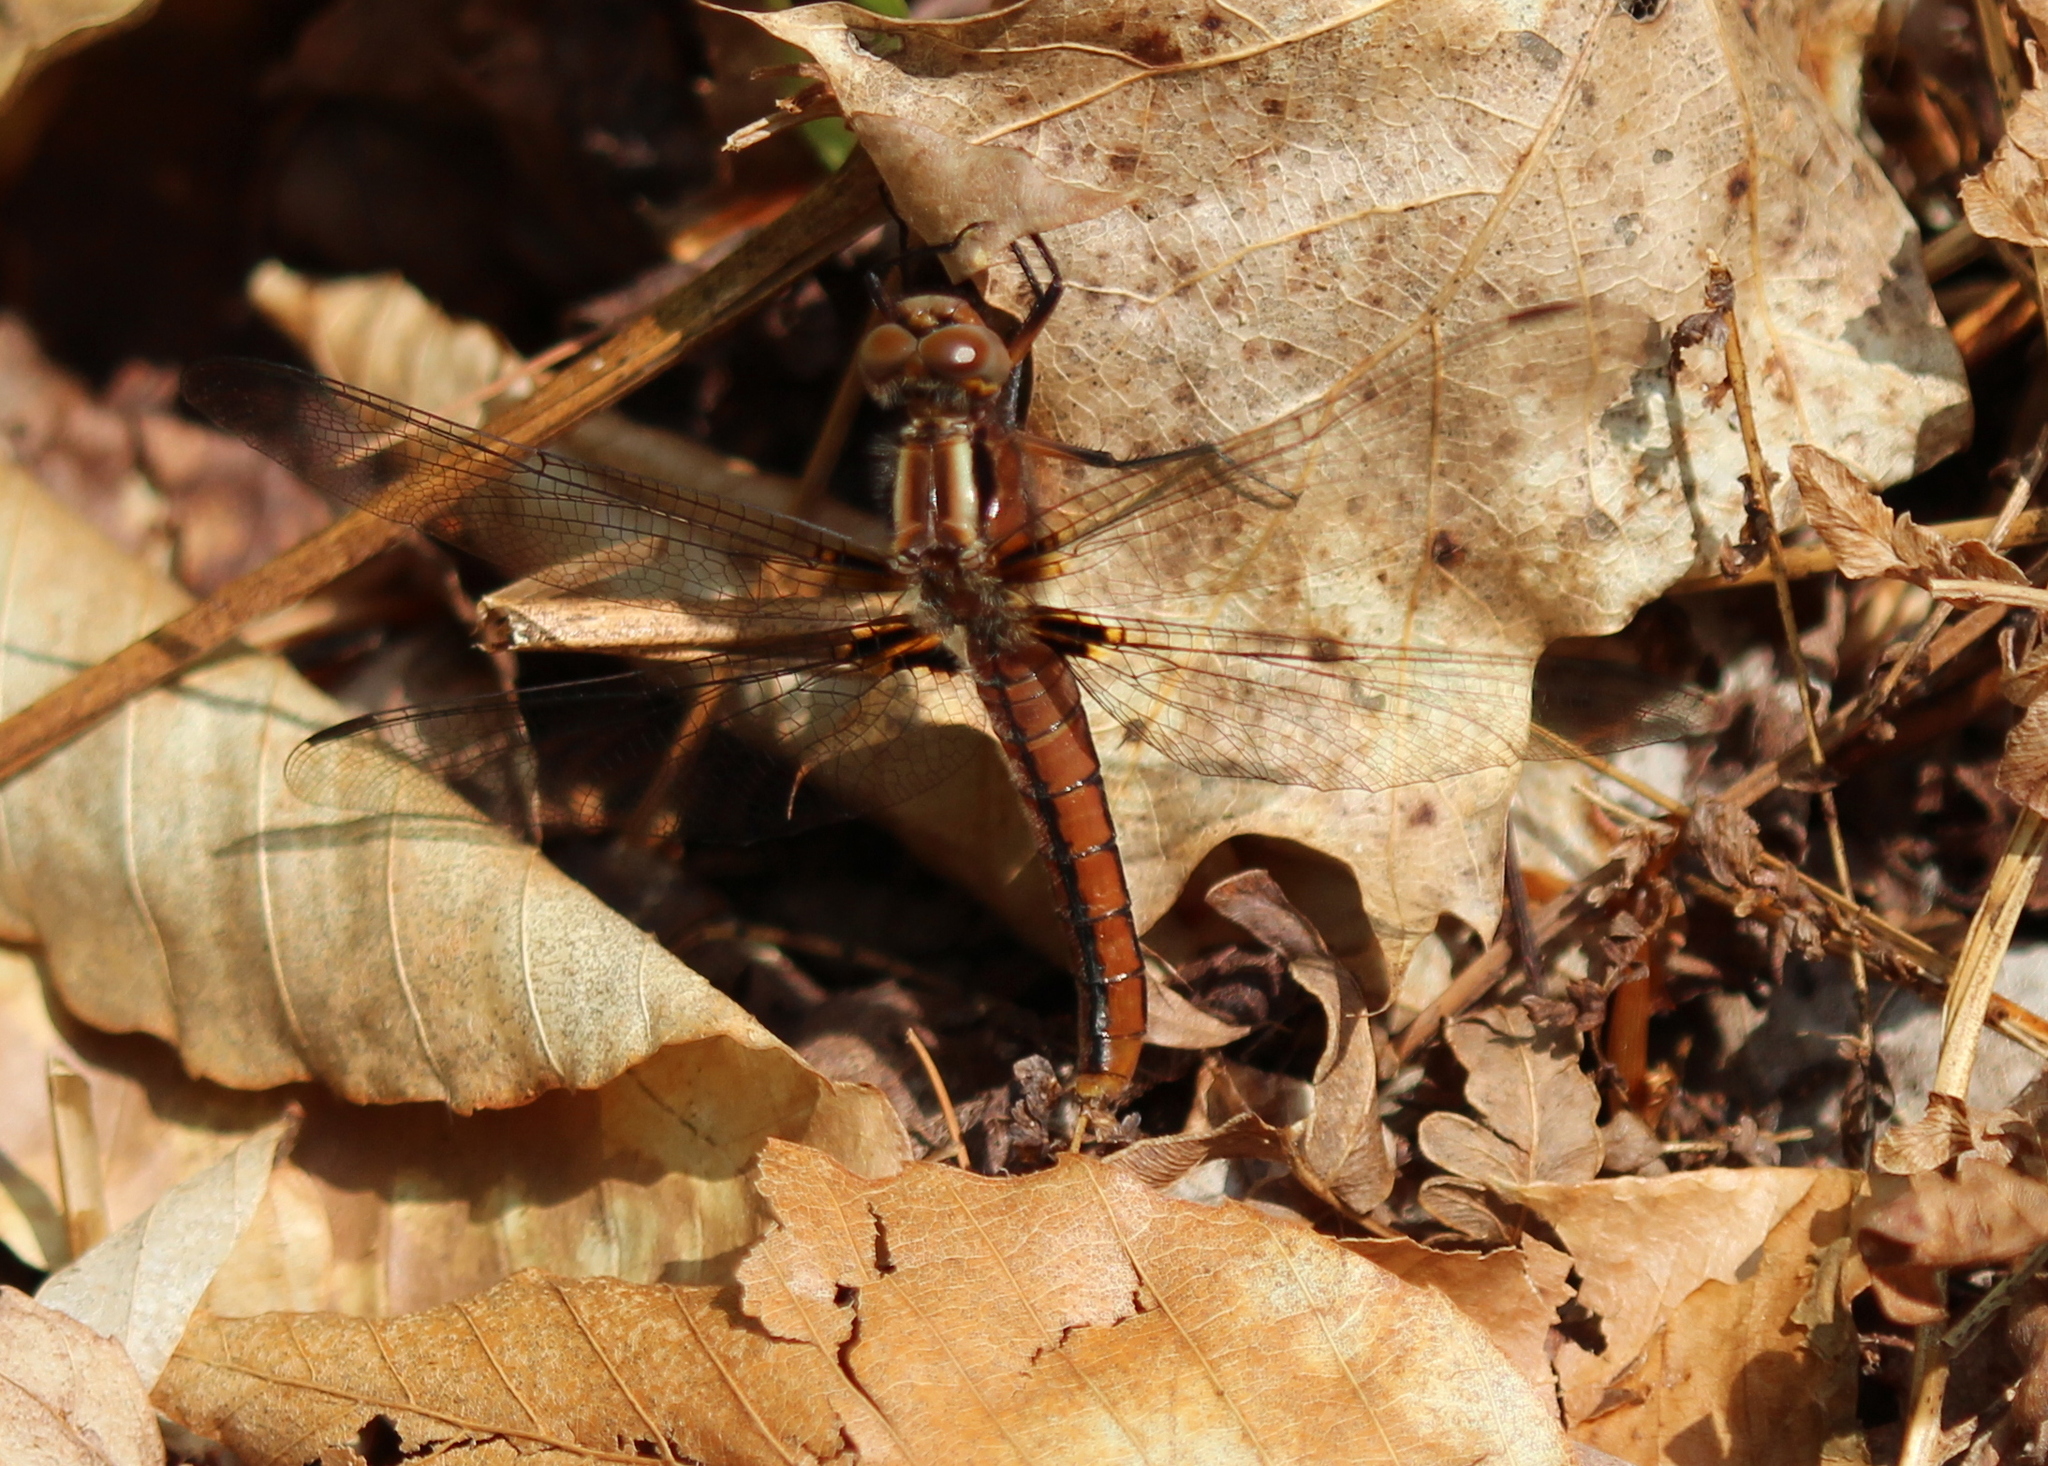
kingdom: Animalia
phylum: Arthropoda
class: Insecta
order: Odonata
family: Libellulidae
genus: Ladona
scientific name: Ladona julia
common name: Chalk-fronted corporal
